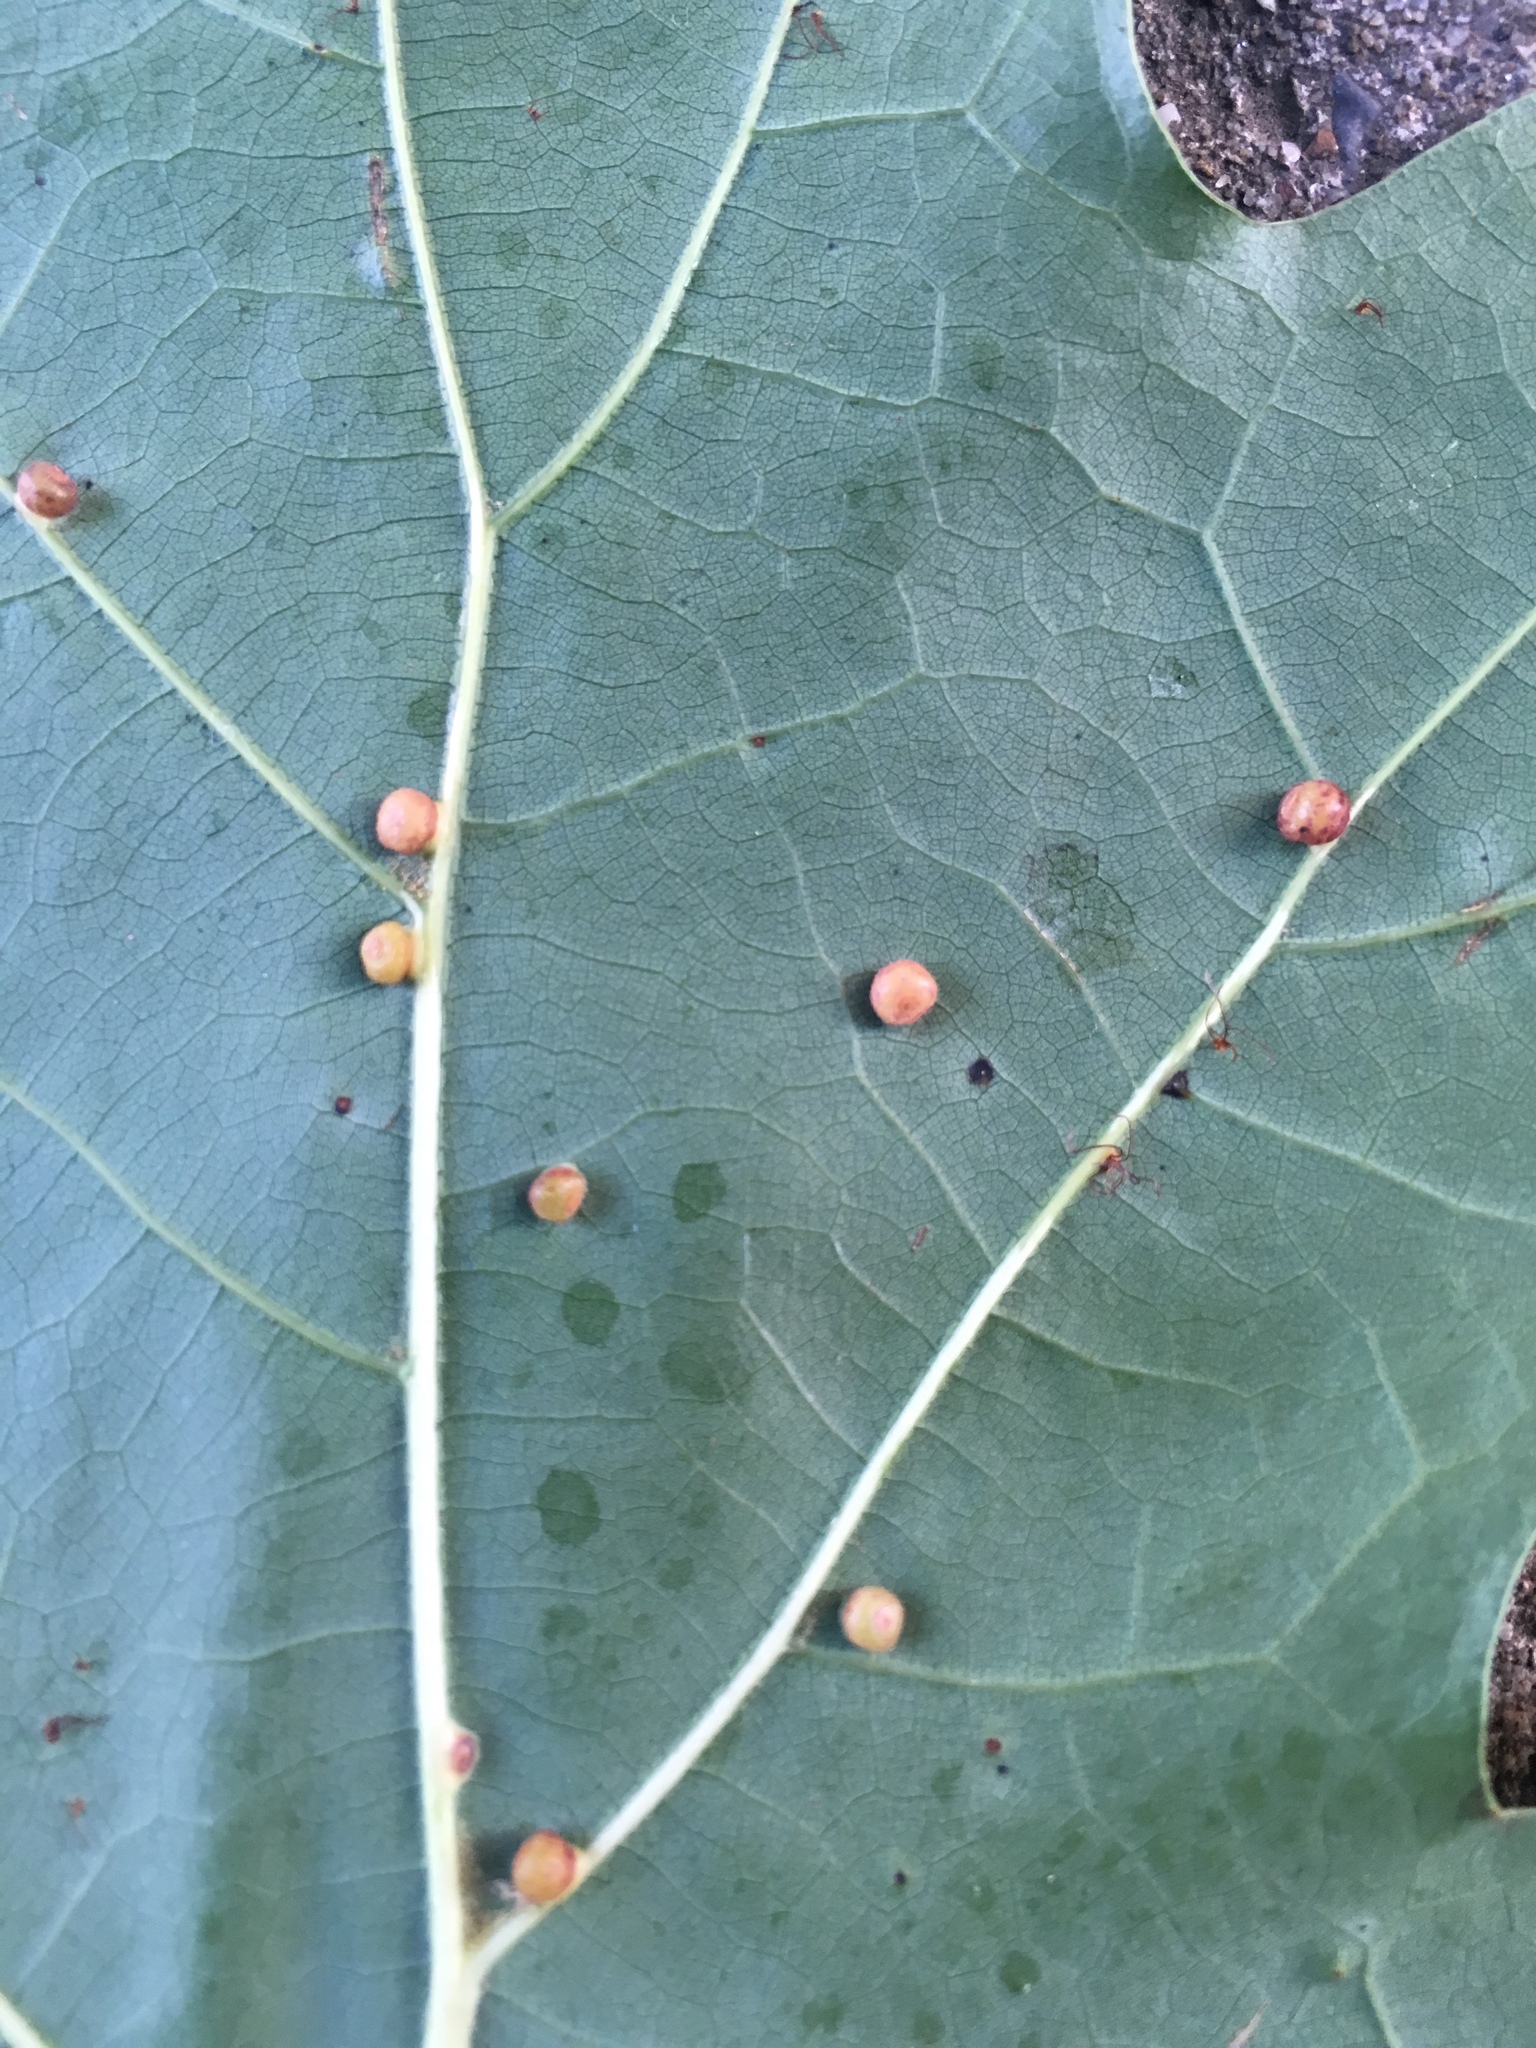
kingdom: Animalia
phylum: Arthropoda
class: Insecta
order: Diptera
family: Cecidomyiidae
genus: Polystepha
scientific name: Polystepha globosa
